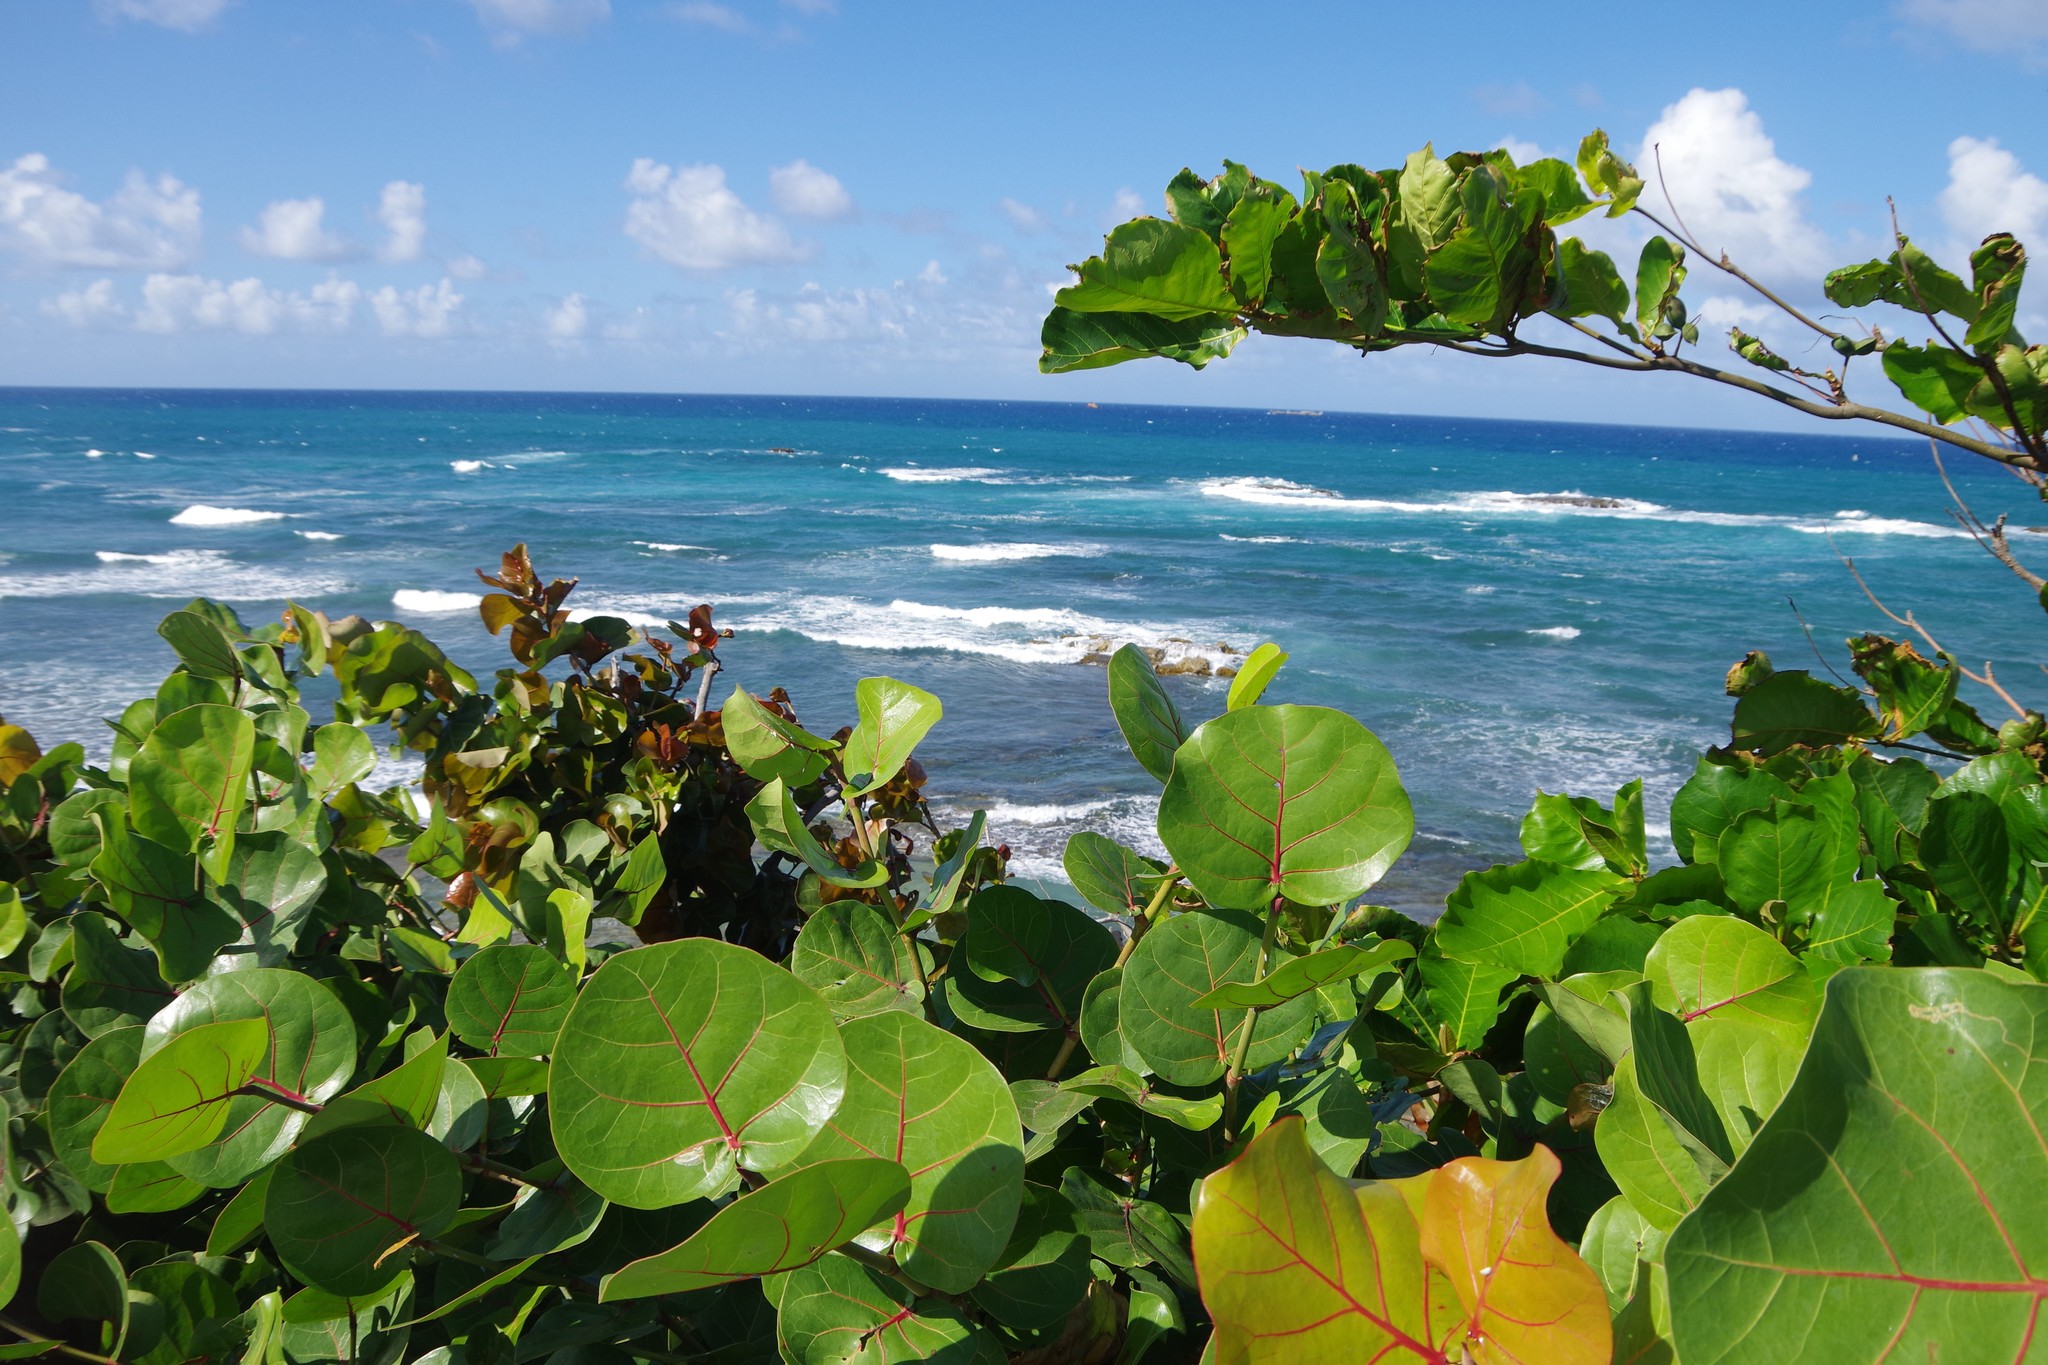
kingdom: Plantae
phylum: Tracheophyta
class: Magnoliopsida
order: Caryophyllales
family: Polygonaceae
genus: Coccoloba
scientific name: Coccoloba uvifera
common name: Seagrape
